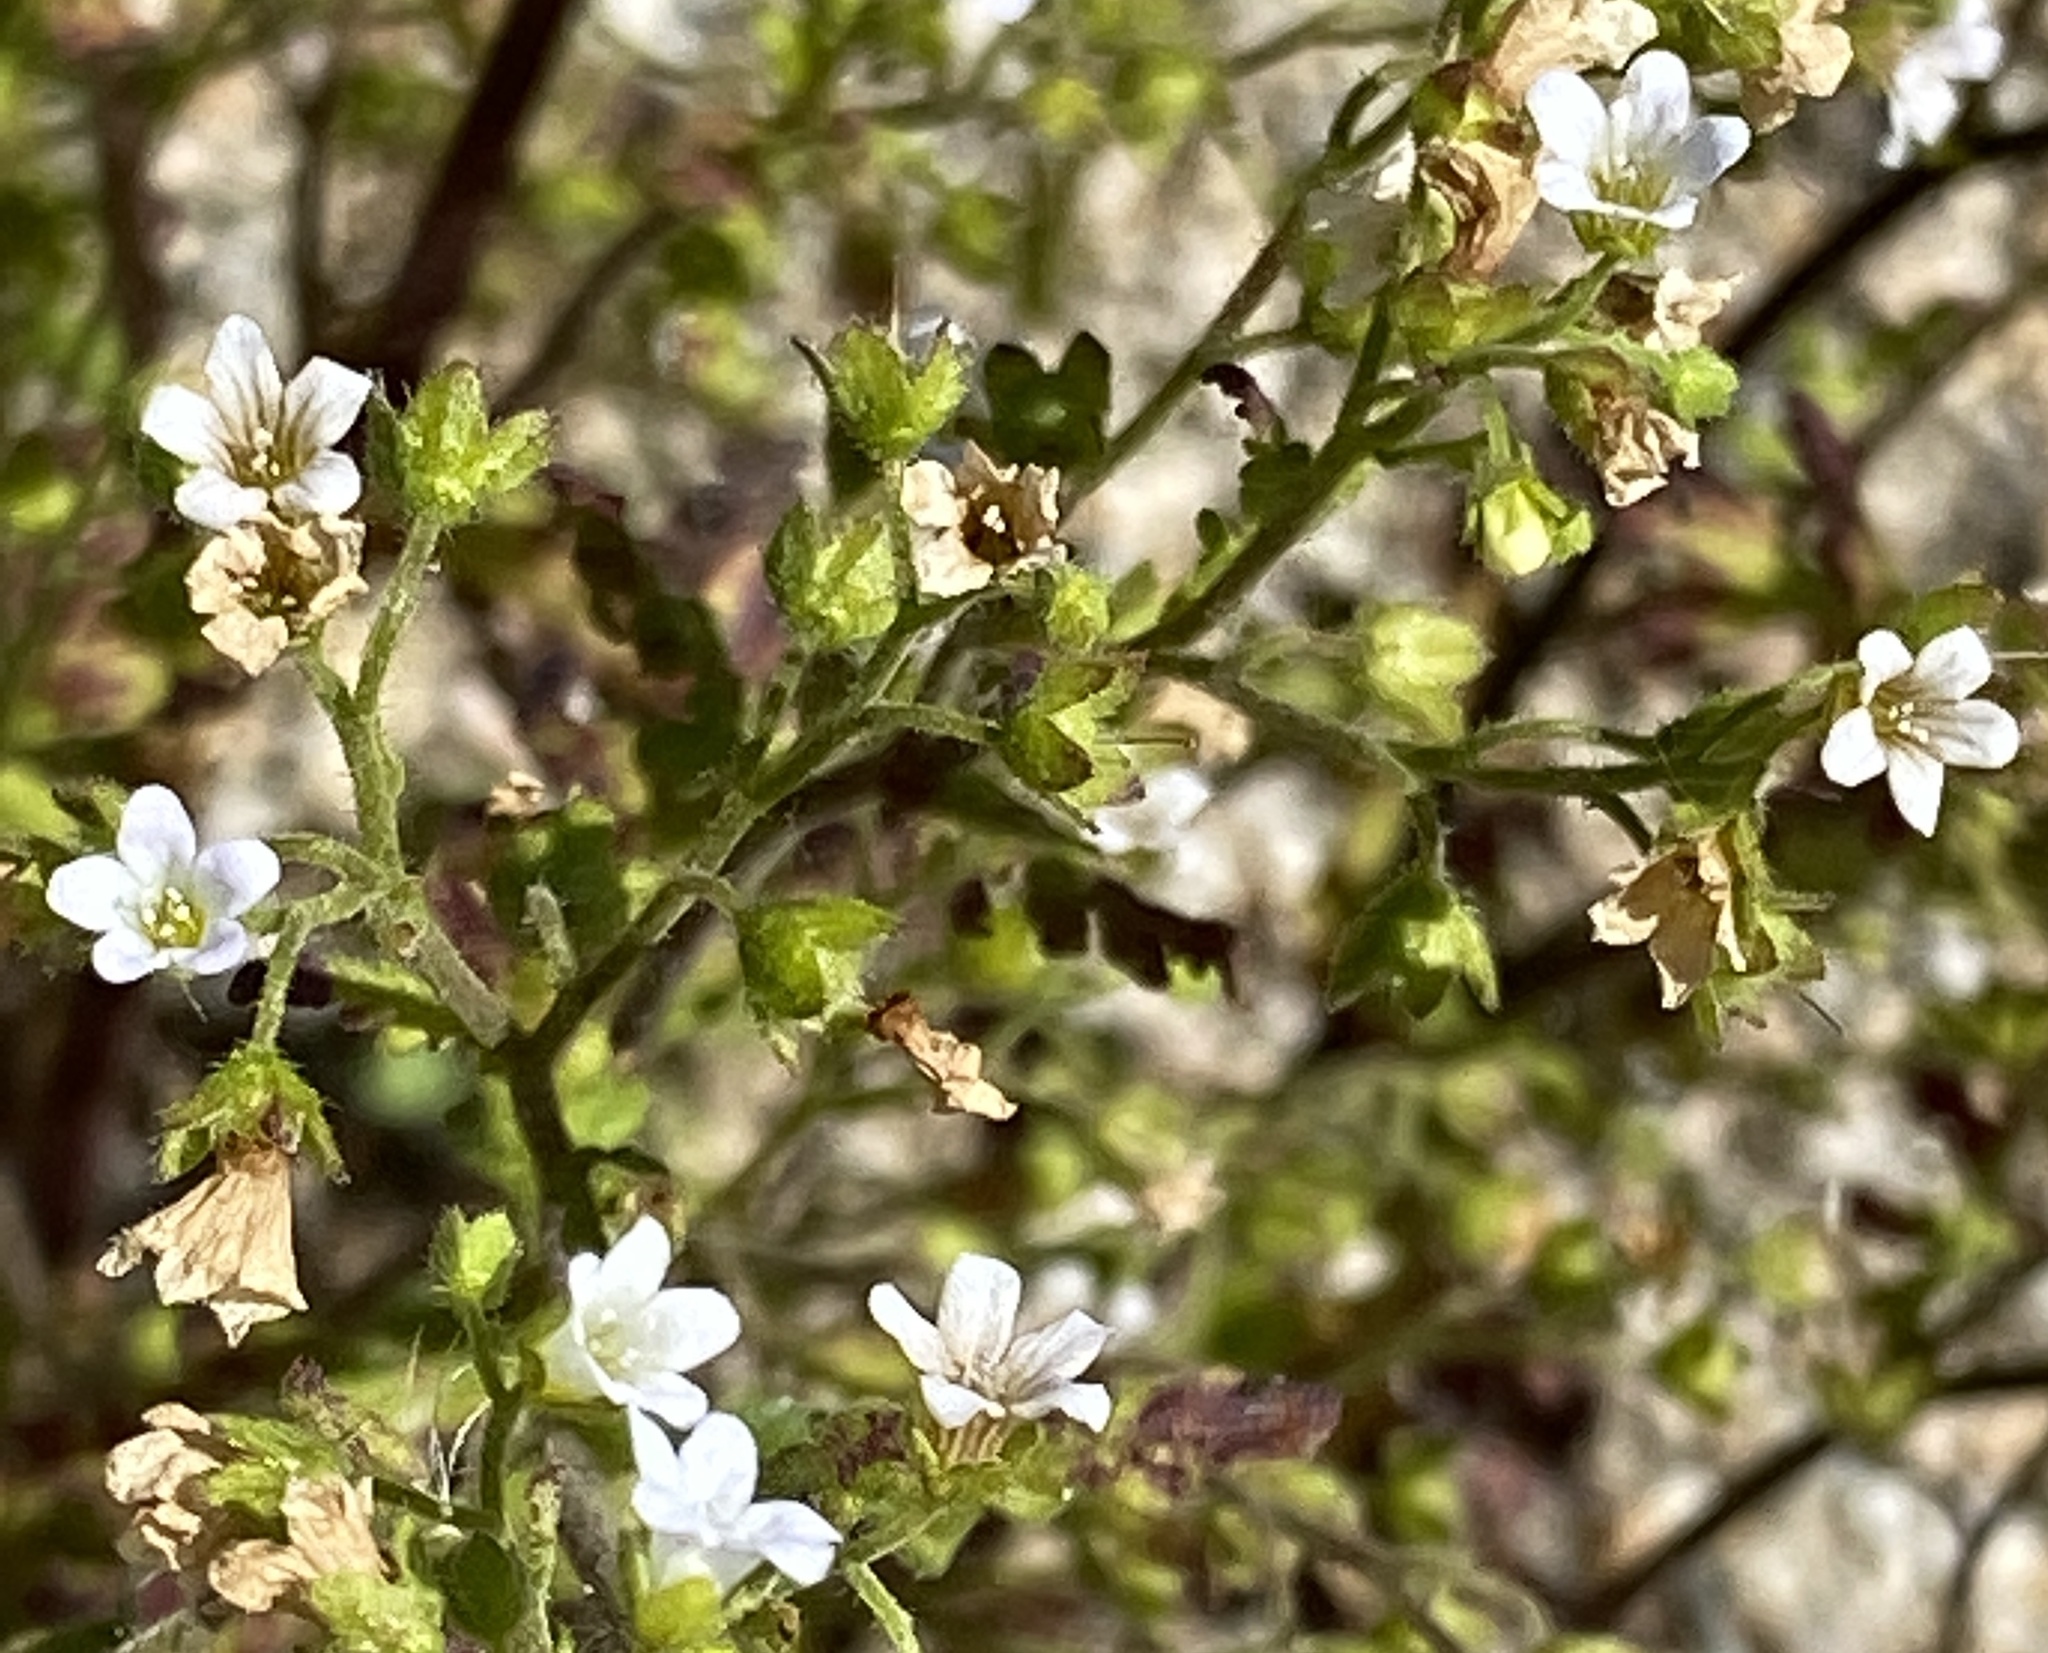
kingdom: Plantae
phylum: Tracheophyta
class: Magnoliopsida
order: Boraginales
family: Hydrophyllaceae
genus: Eucrypta
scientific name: Eucrypta chrysanthemifolia
